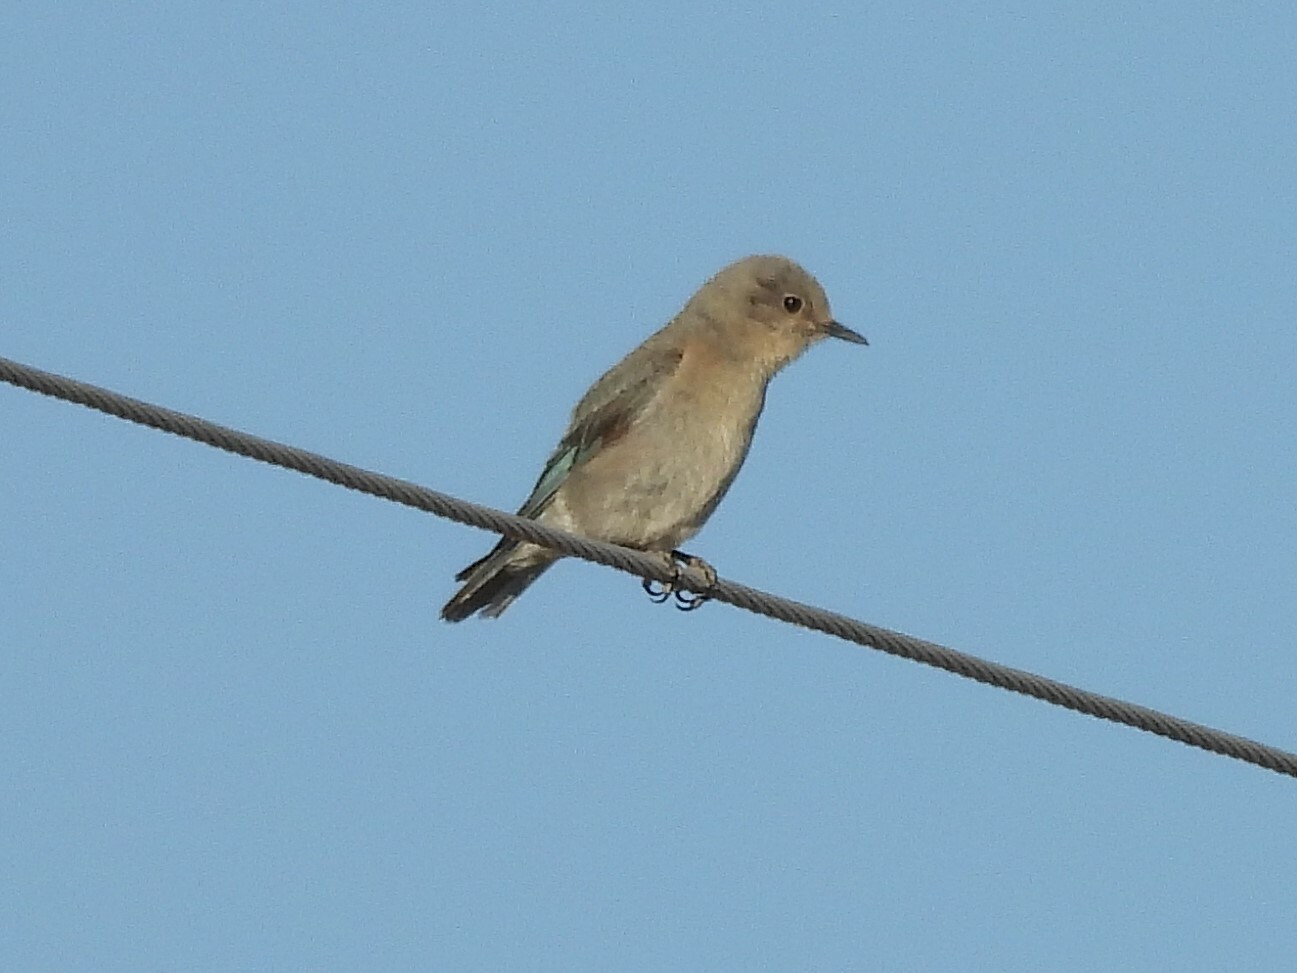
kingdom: Animalia
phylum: Chordata
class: Aves
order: Passeriformes
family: Turdidae
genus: Sialia
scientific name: Sialia currucoides
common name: Mountain bluebird
